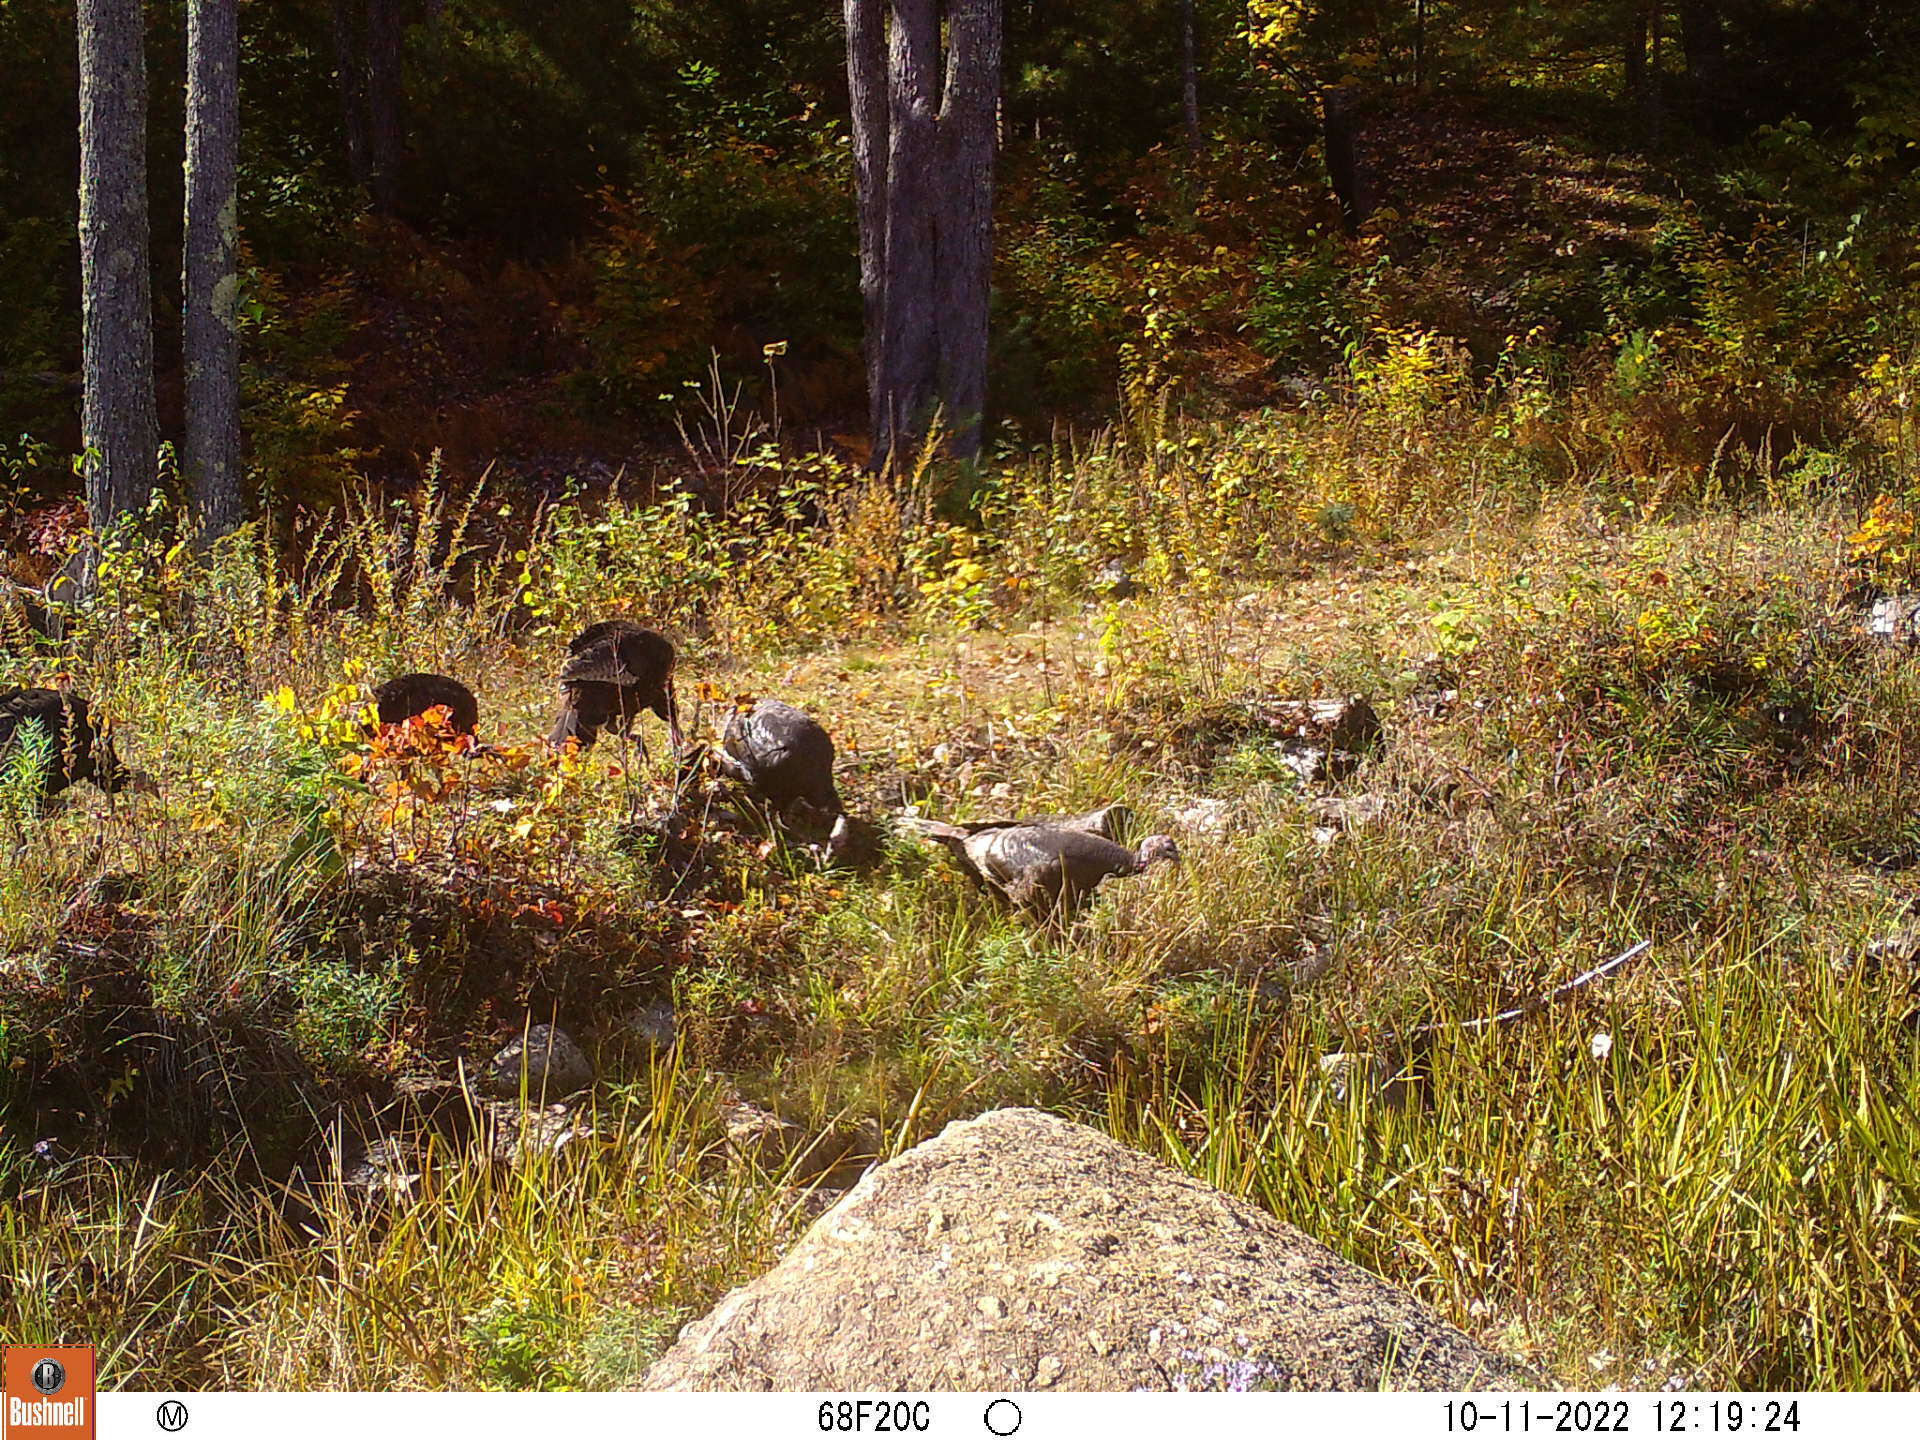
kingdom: Animalia
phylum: Chordata
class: Aves
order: Galliformes
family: Phasianidae
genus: Meleagris
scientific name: Meleagris gallopavo
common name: Wild turkey
